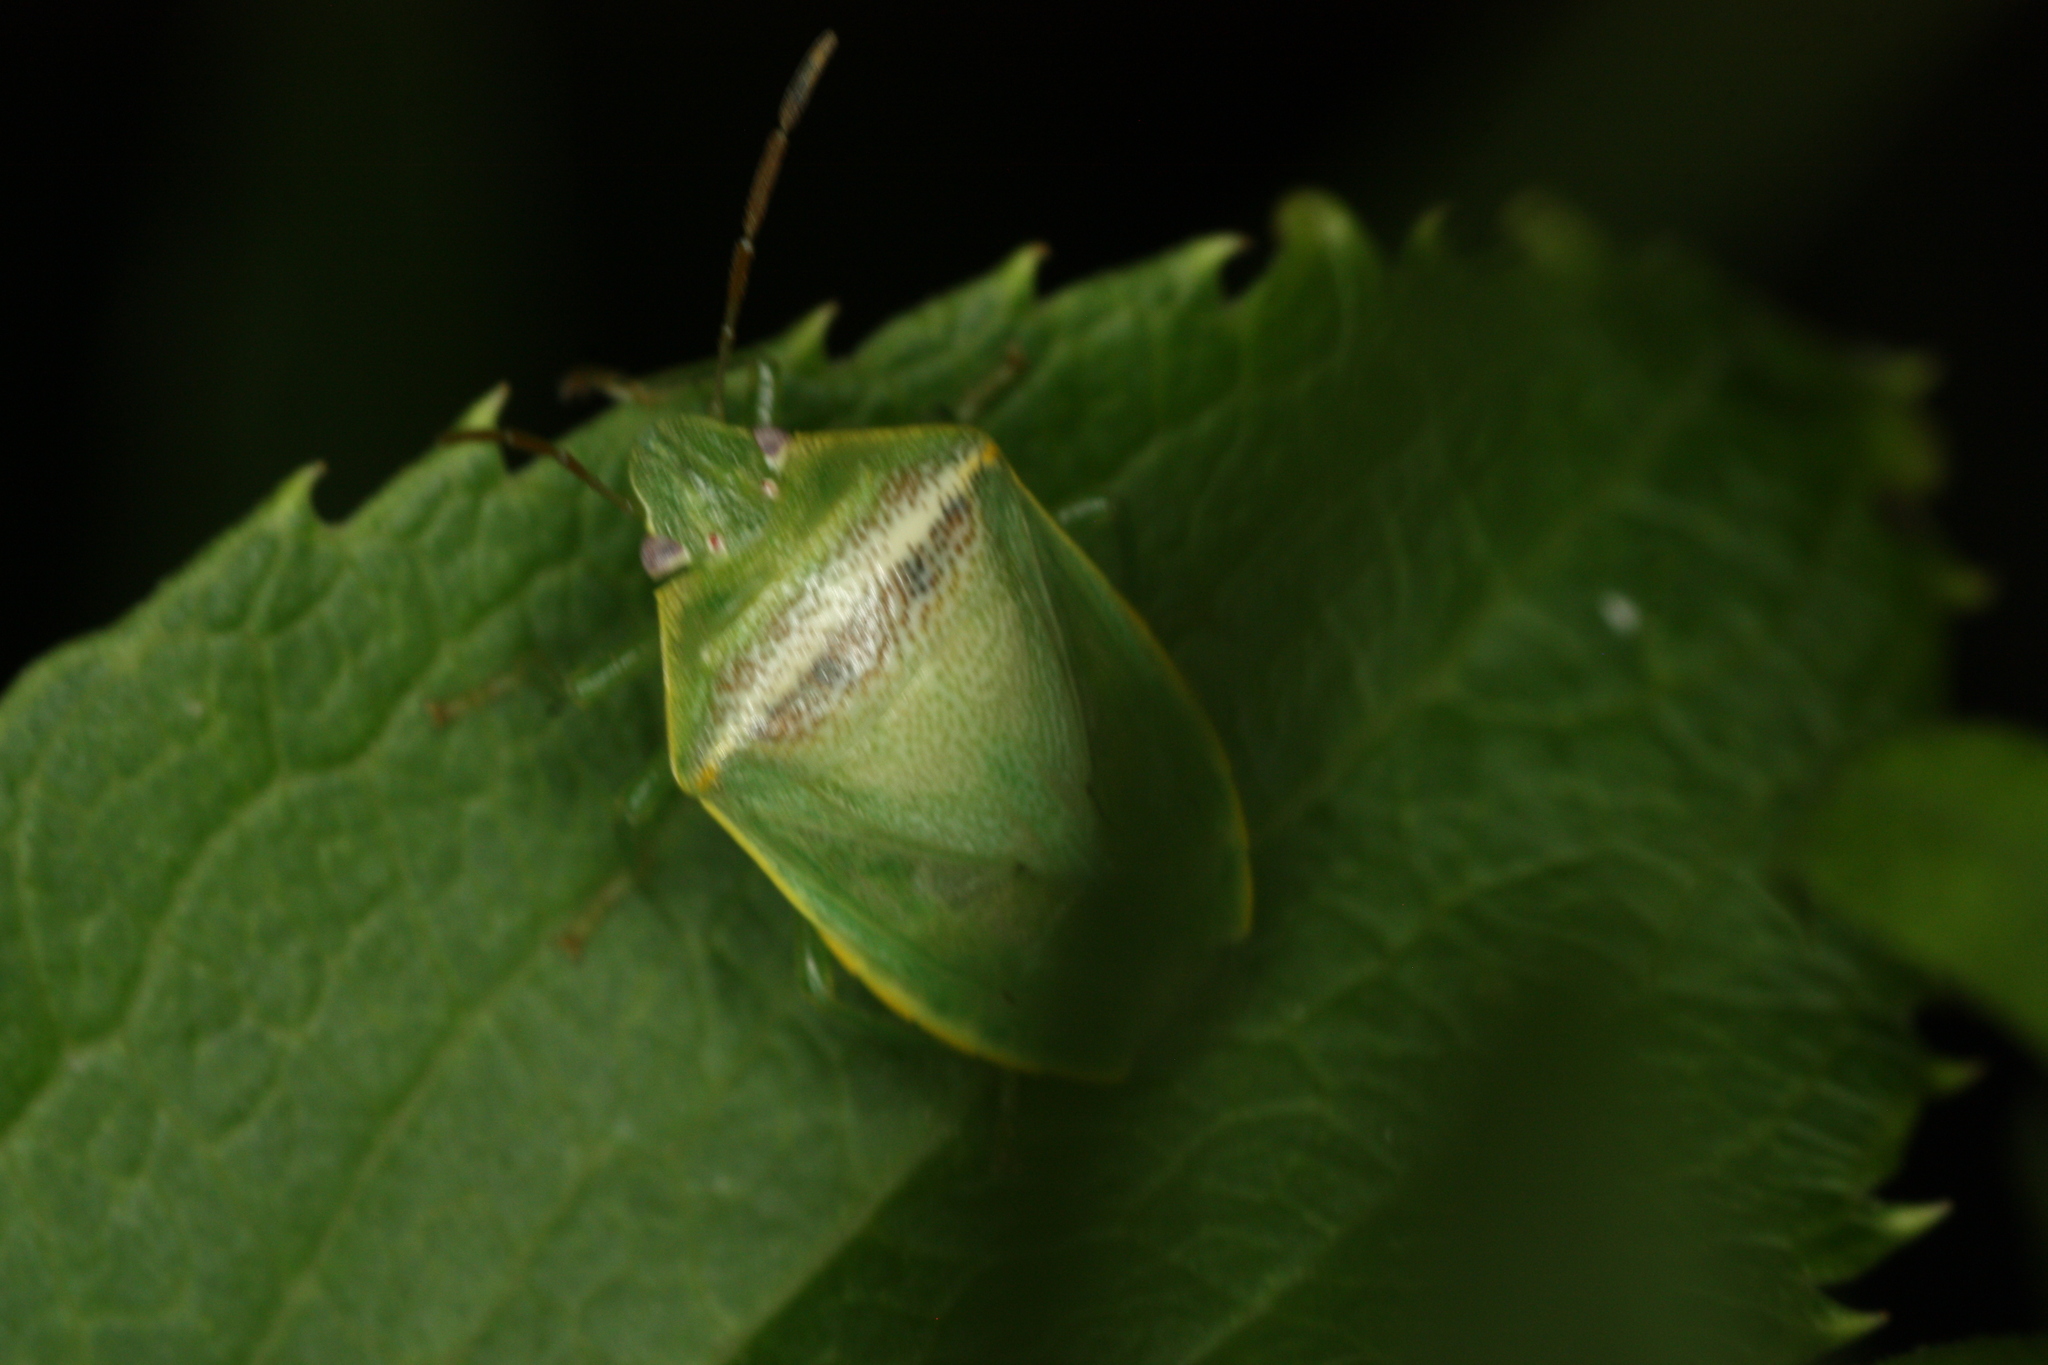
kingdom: Animalia
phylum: Arthropoda
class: Insecta
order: Hemiptera
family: Pentatomidae
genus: Piezodorus
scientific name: Piezodorus guildinii
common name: Redbanded stink bug
